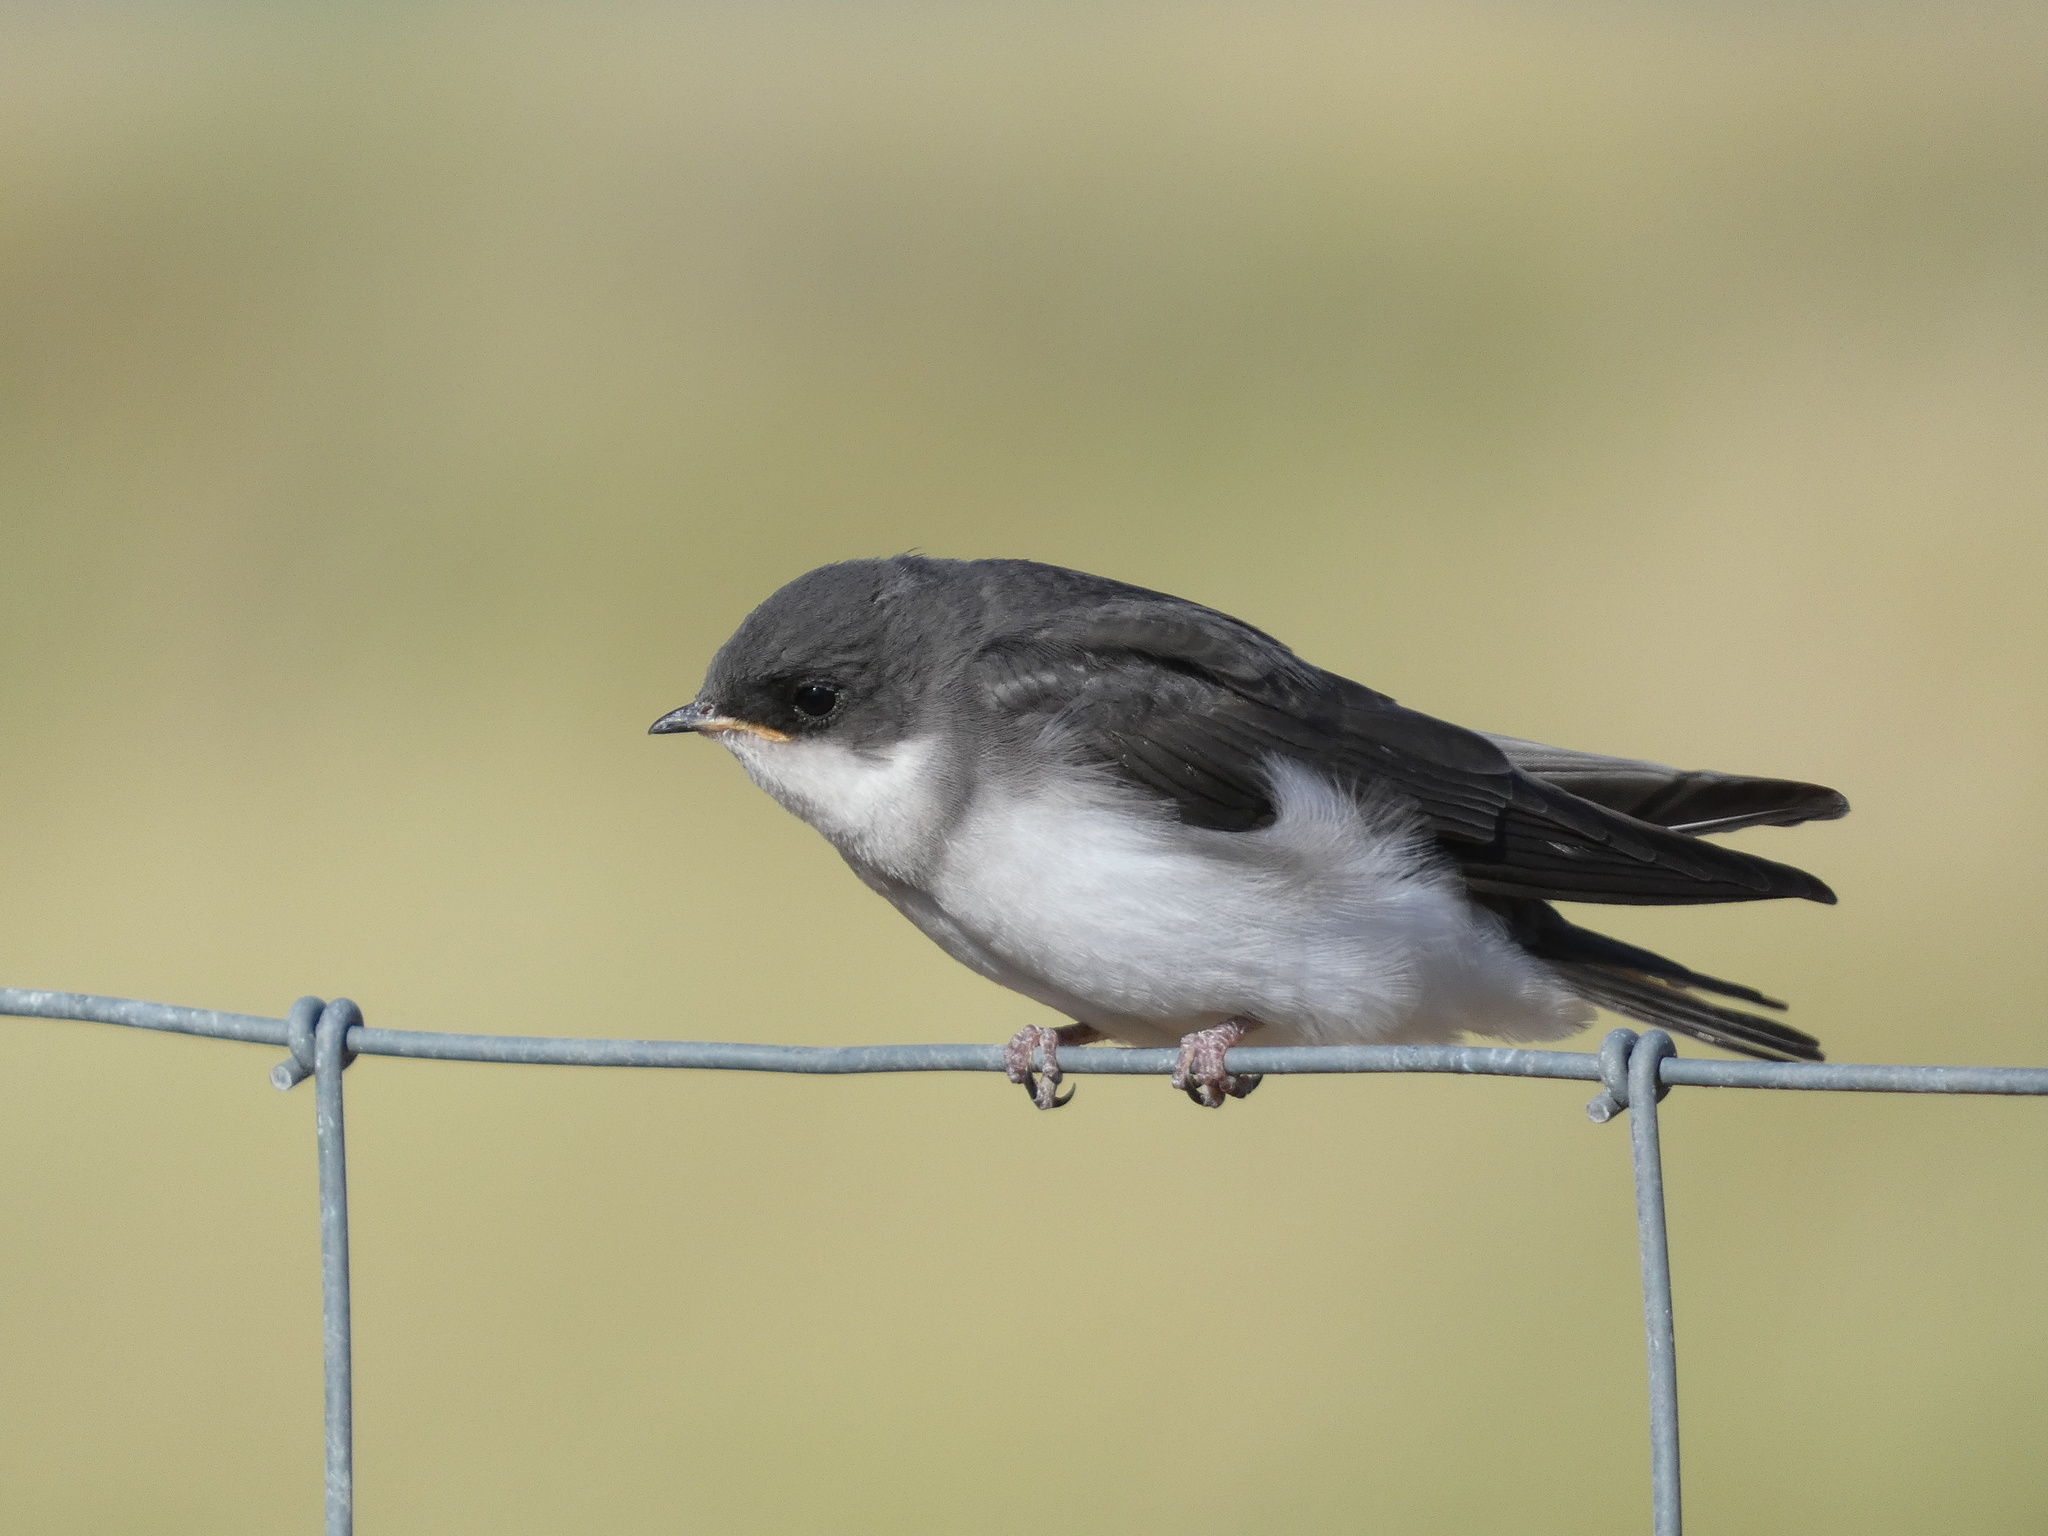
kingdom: Animalia
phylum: Chordata
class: Aves
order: Passeriformes
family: Hirundinidae
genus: Tachycineta
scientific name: Tachycineta bicolor
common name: Tree swallow
